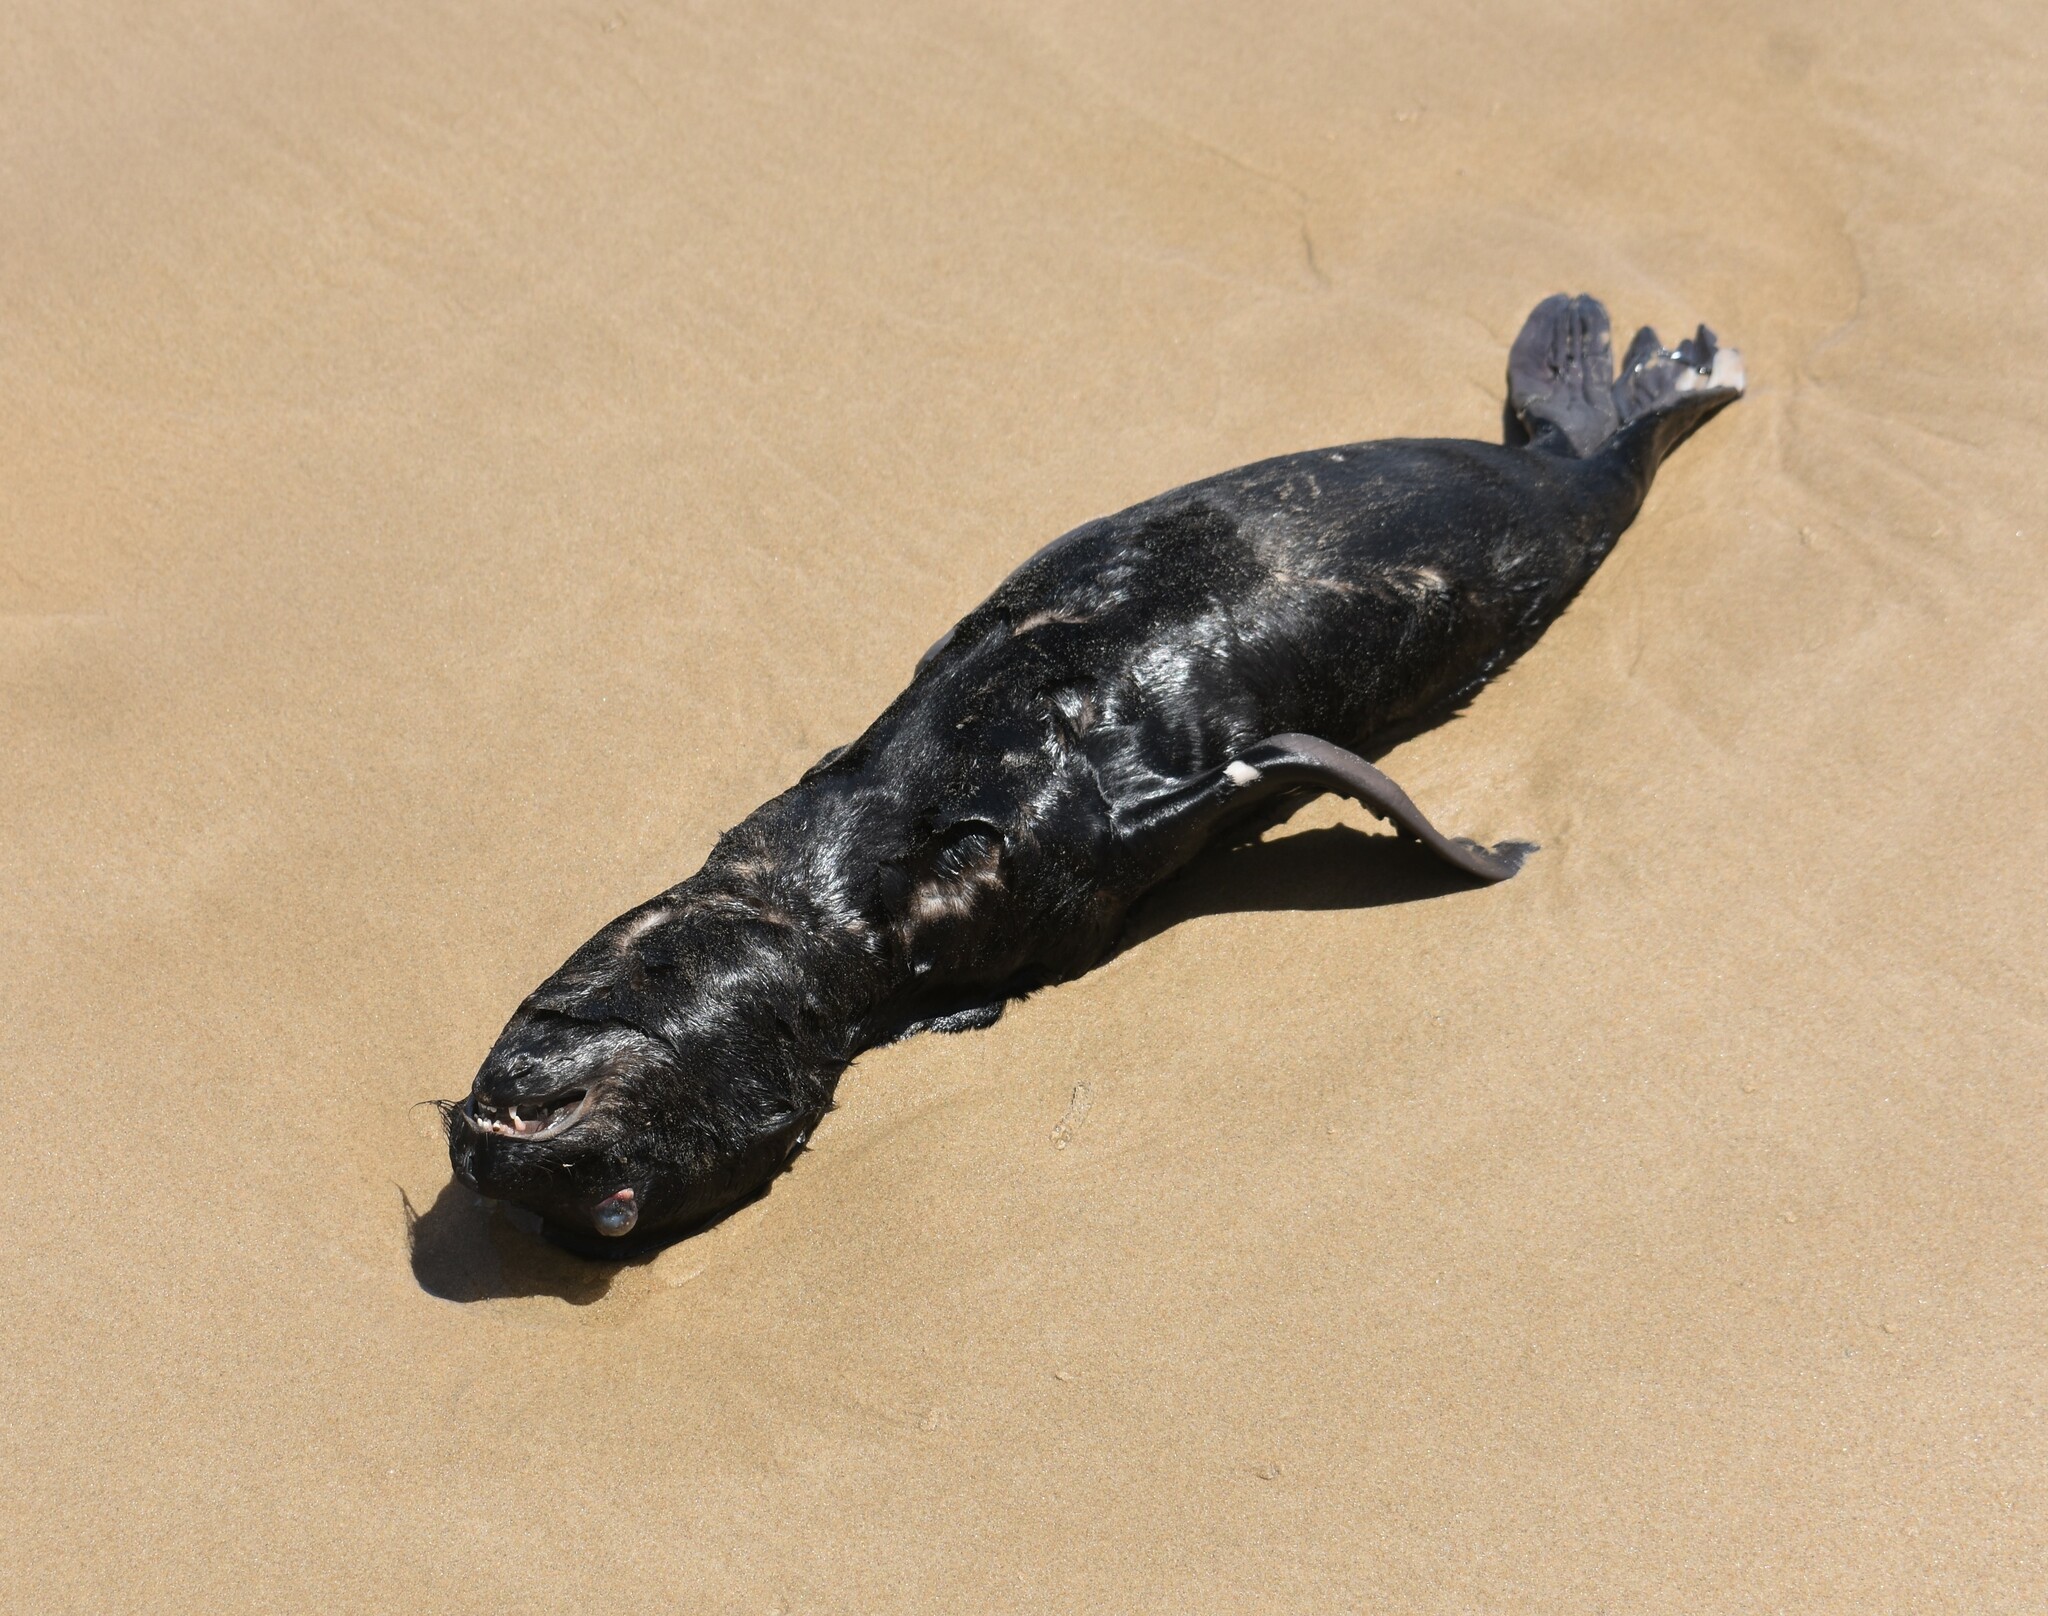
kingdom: Animalia
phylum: Chordata
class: Mammalia
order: Carnivora
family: Otariidae
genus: Arctocephalus
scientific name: Arctocephalus pusillus
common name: Brown fur seal
